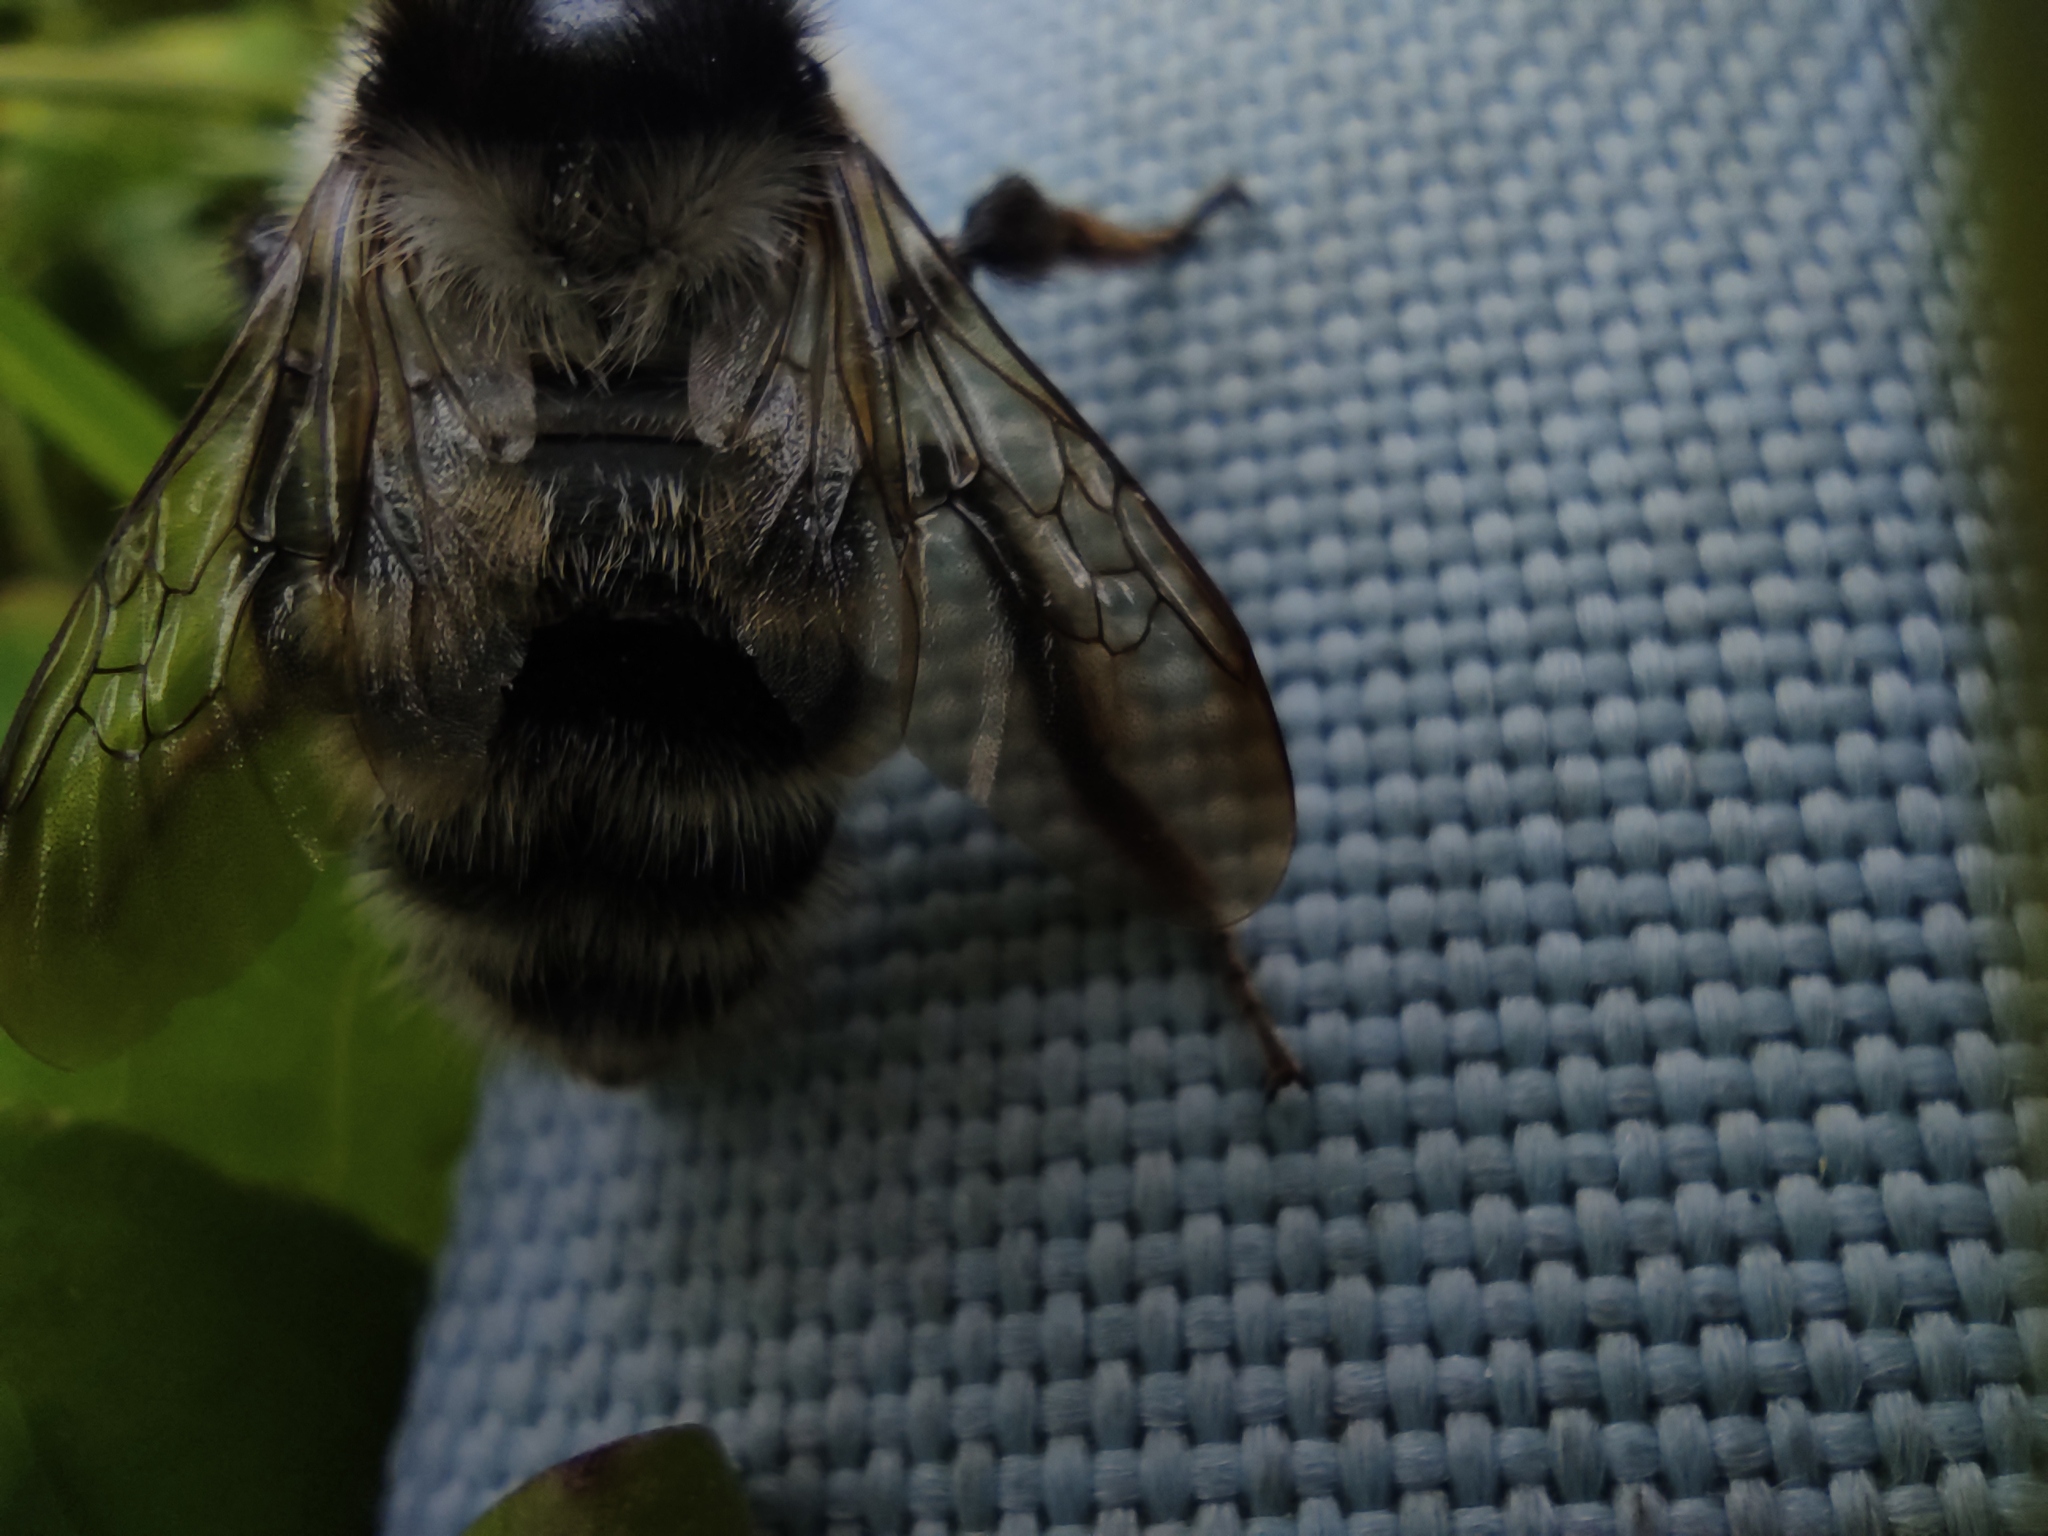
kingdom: Animalia
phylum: Arthropoda
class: Insecta
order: Hymenoptera
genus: Thoracobombus
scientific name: Thoracobombus
